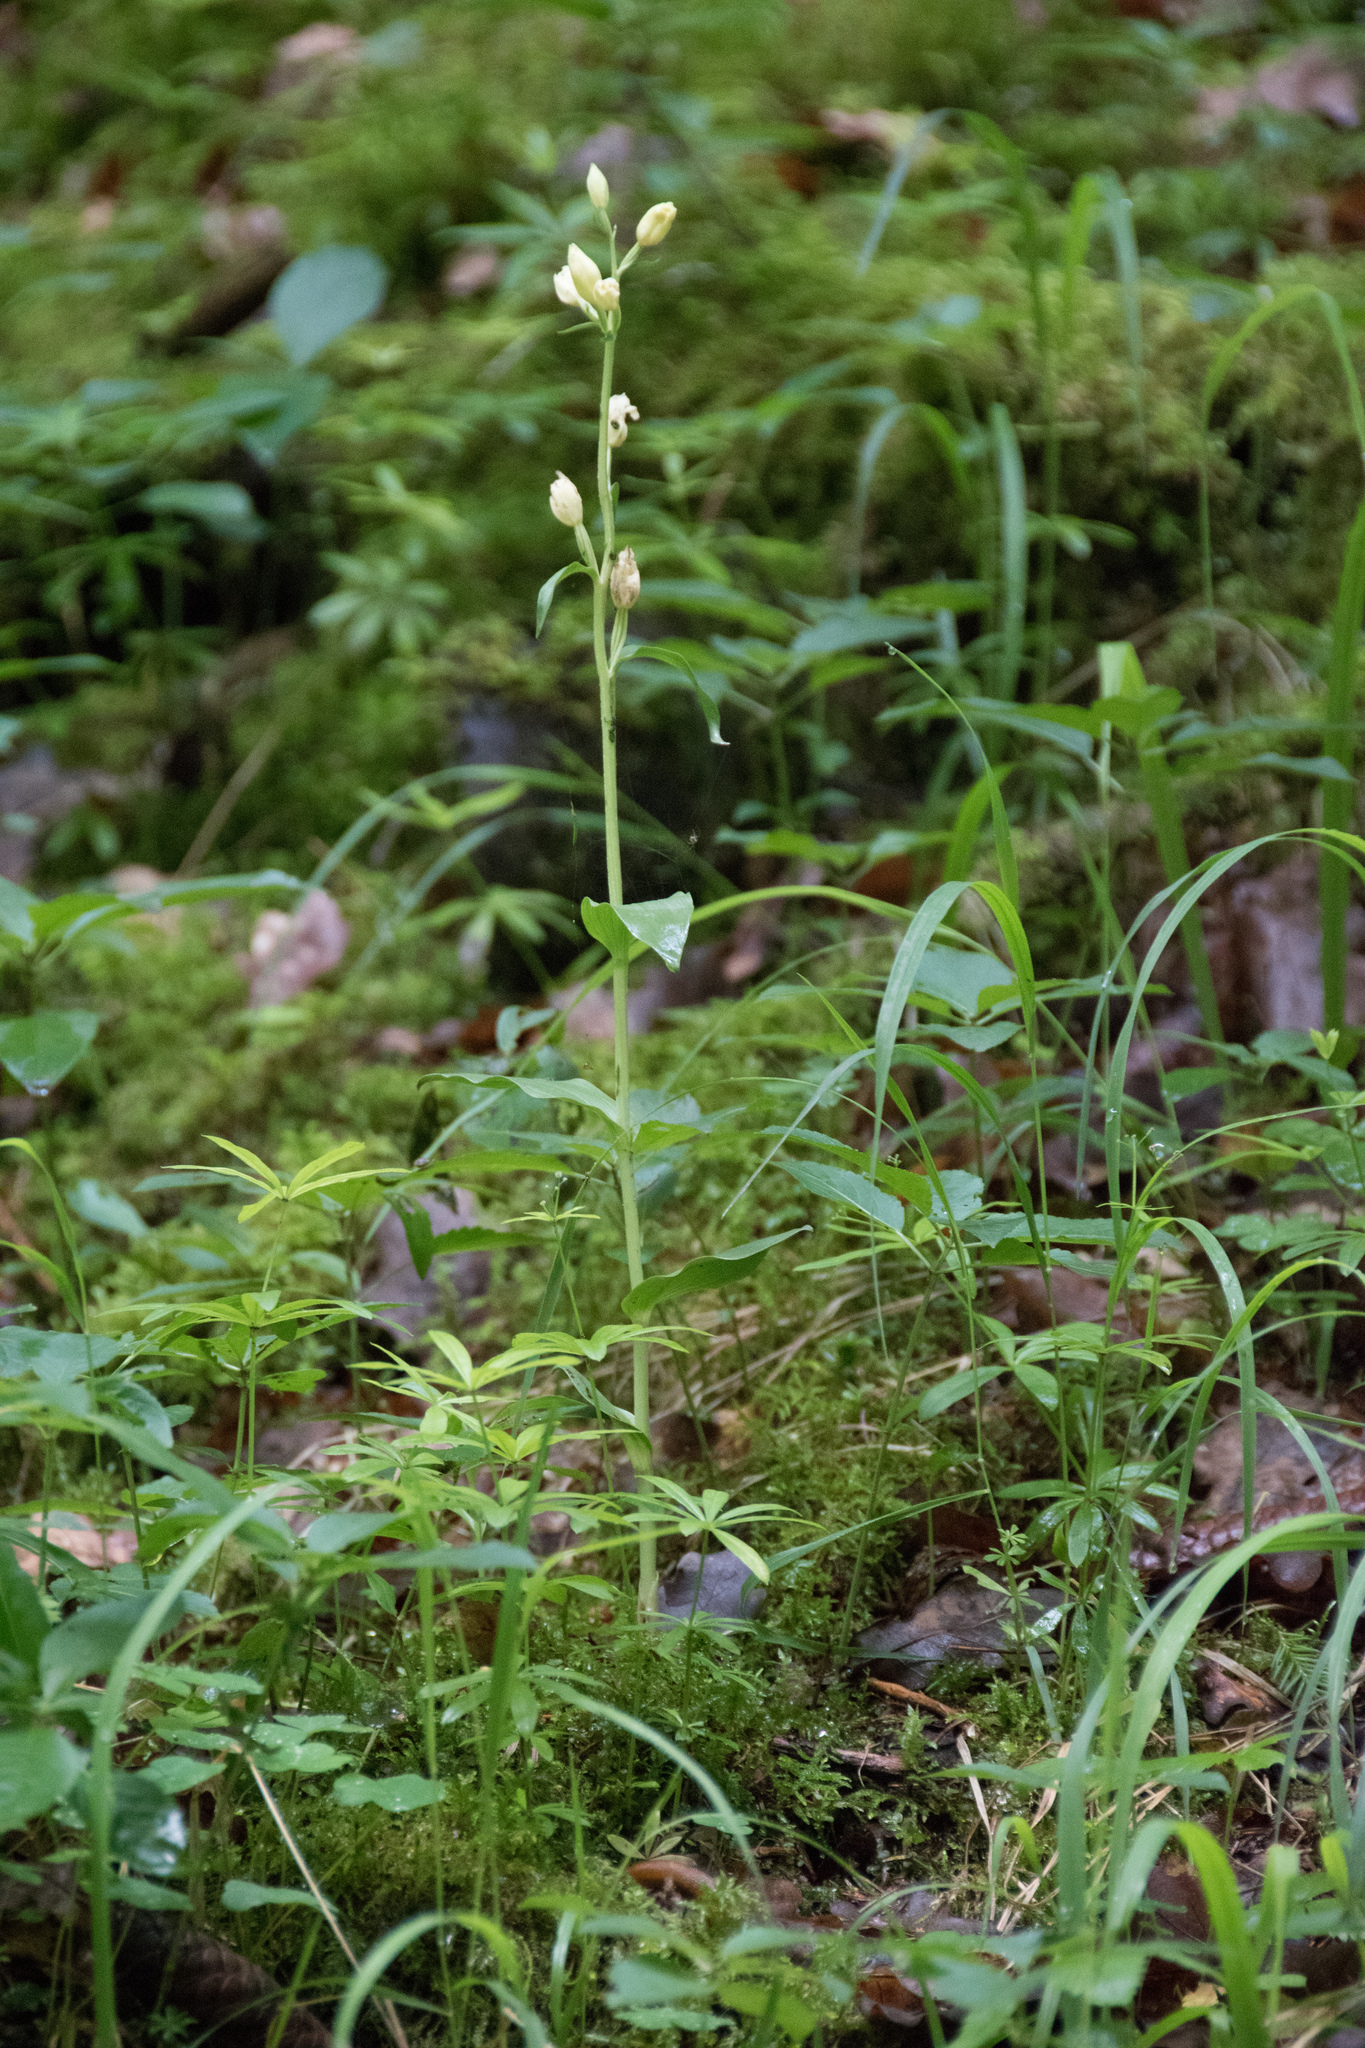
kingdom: Plantae
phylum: Tracheophyta
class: Liliopsida
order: Asparagales
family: Orchidaceae
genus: Cephalanthera
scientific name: Cephalanthera damasonium
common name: White helleborine
